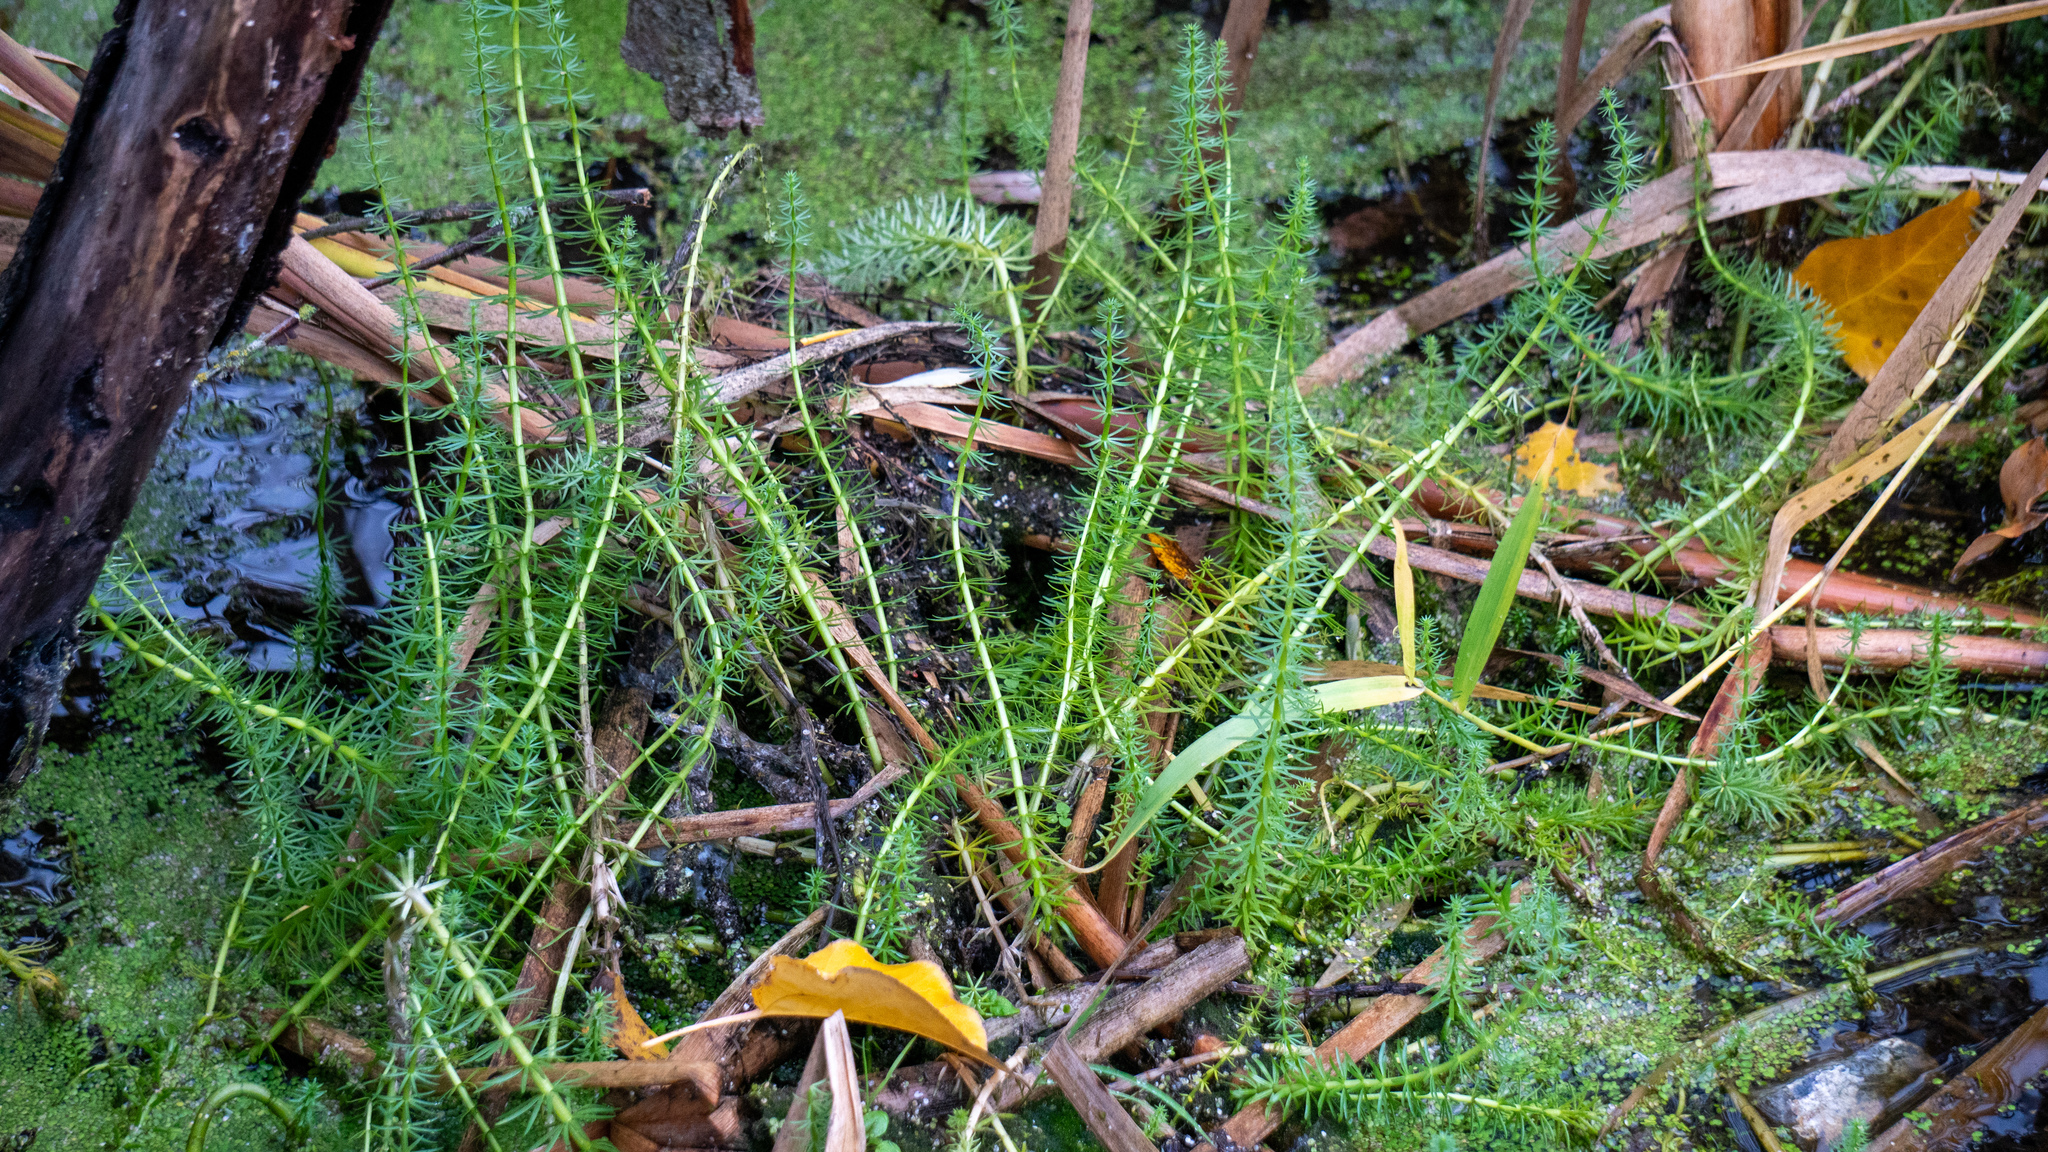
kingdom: Plantae
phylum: Tracheophyta
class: Magnoliopsida
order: Lamiales
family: Plantaginaceae
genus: Hippuris
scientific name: Hippuris vulgaris
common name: Mare's-tail
